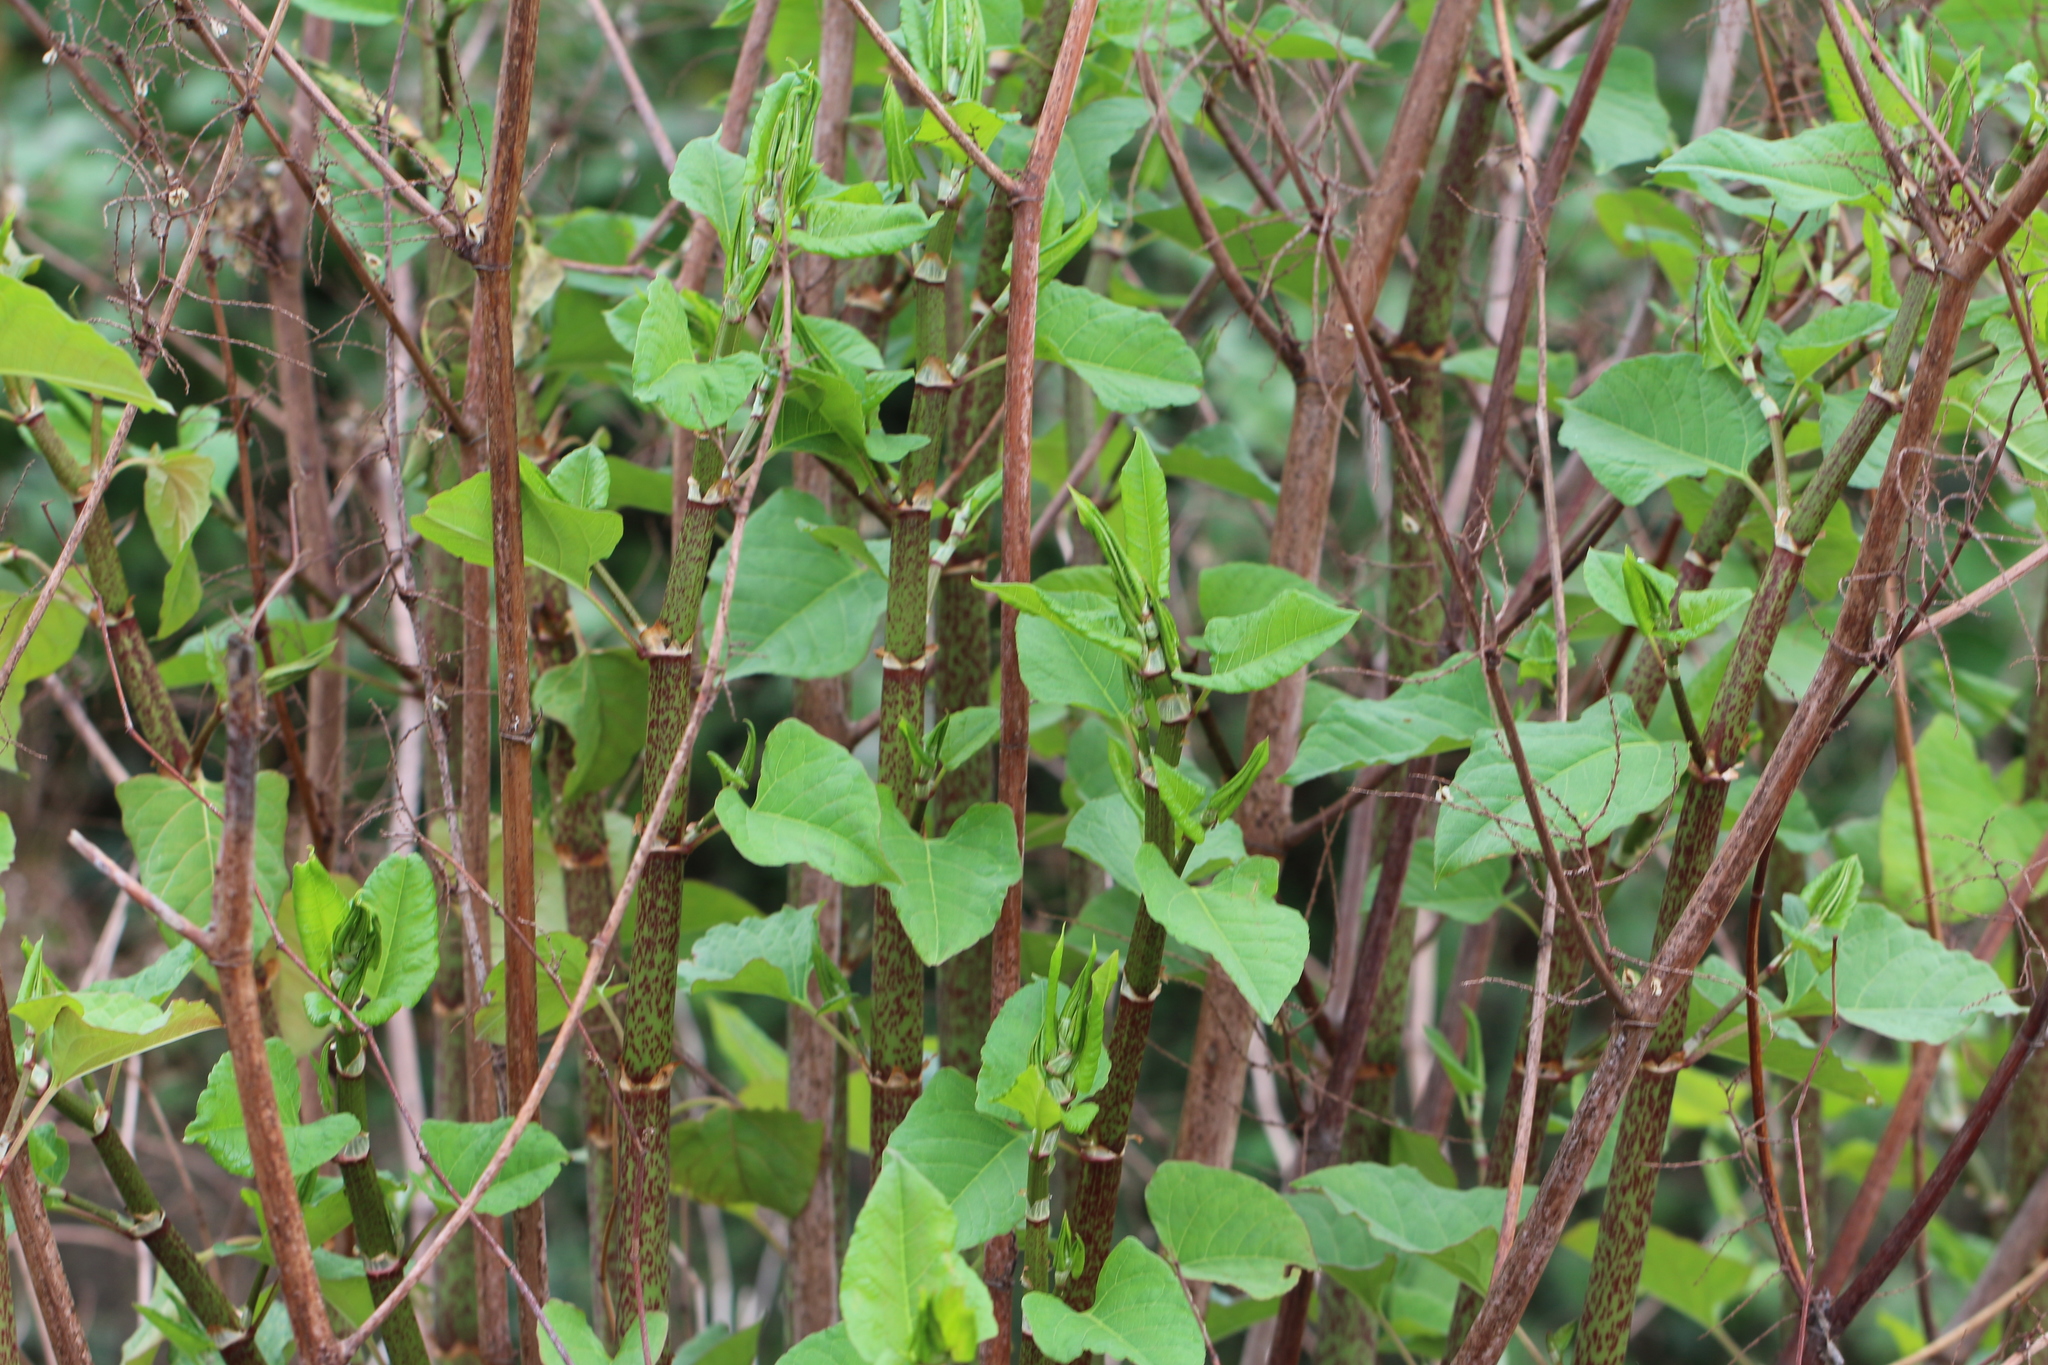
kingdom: Plantae
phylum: Tracheophyta
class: Magnoliopsida
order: Caryophyllales
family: Polygonaceae
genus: Reynoutria
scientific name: Reynoutria bohemica
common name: Bohemian knotweed
